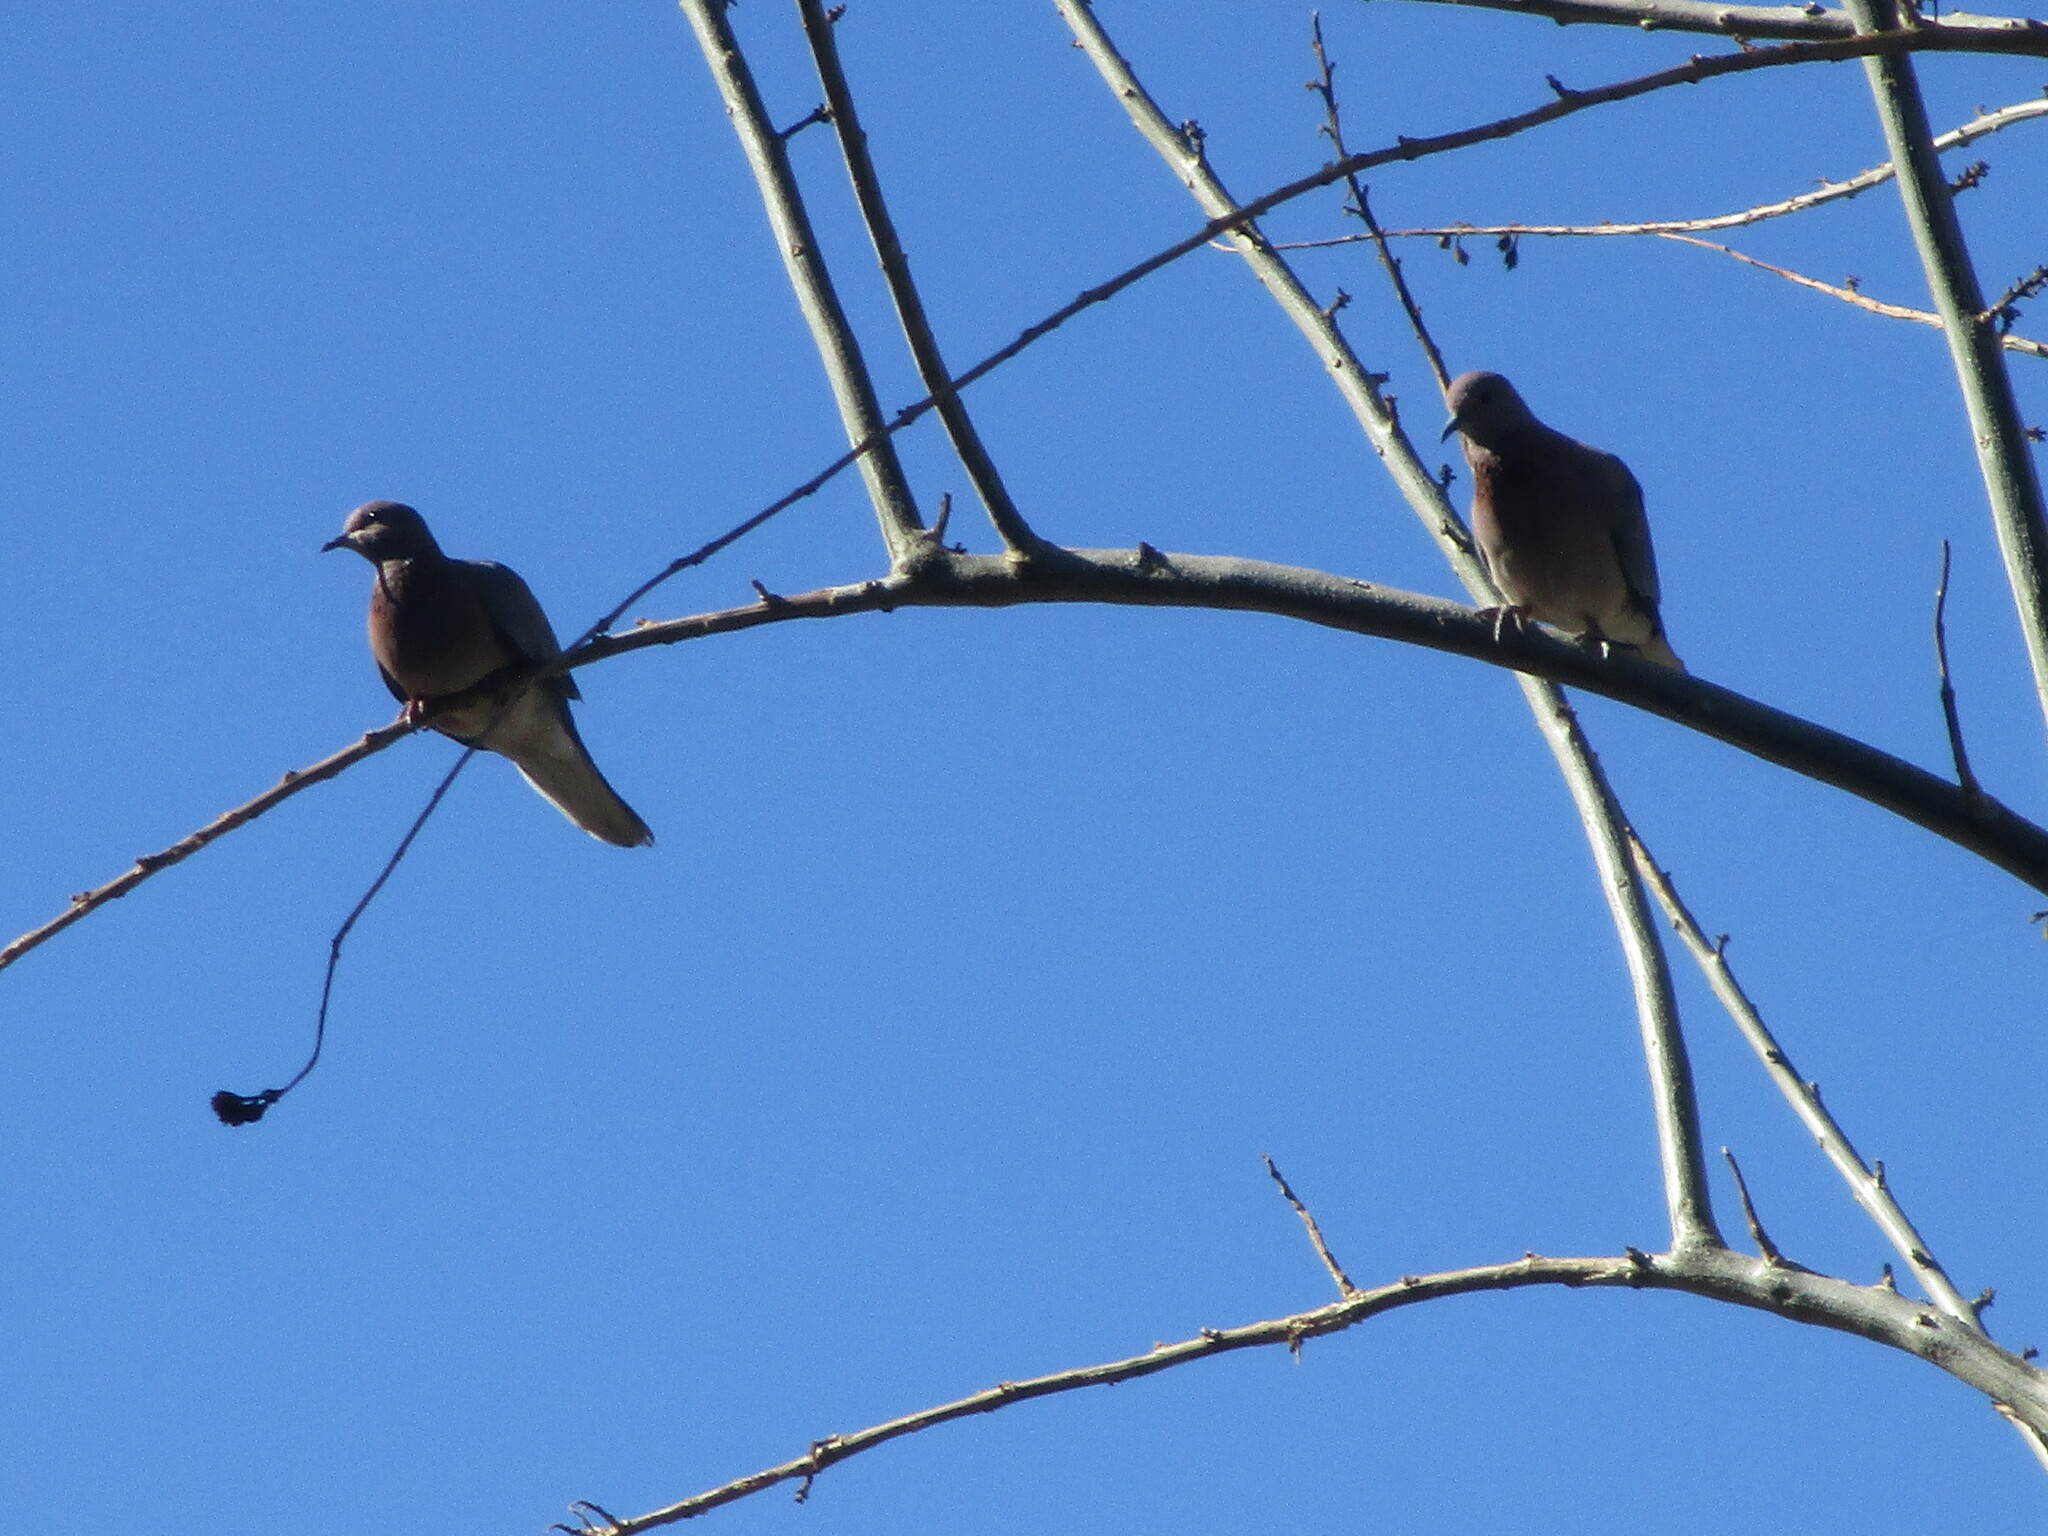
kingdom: Animalia
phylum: Chordata
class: Aves
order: Columbiformes
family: Columbidae
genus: Spilopelia
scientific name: Spilopelia senegalensis
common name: Laughing dove
